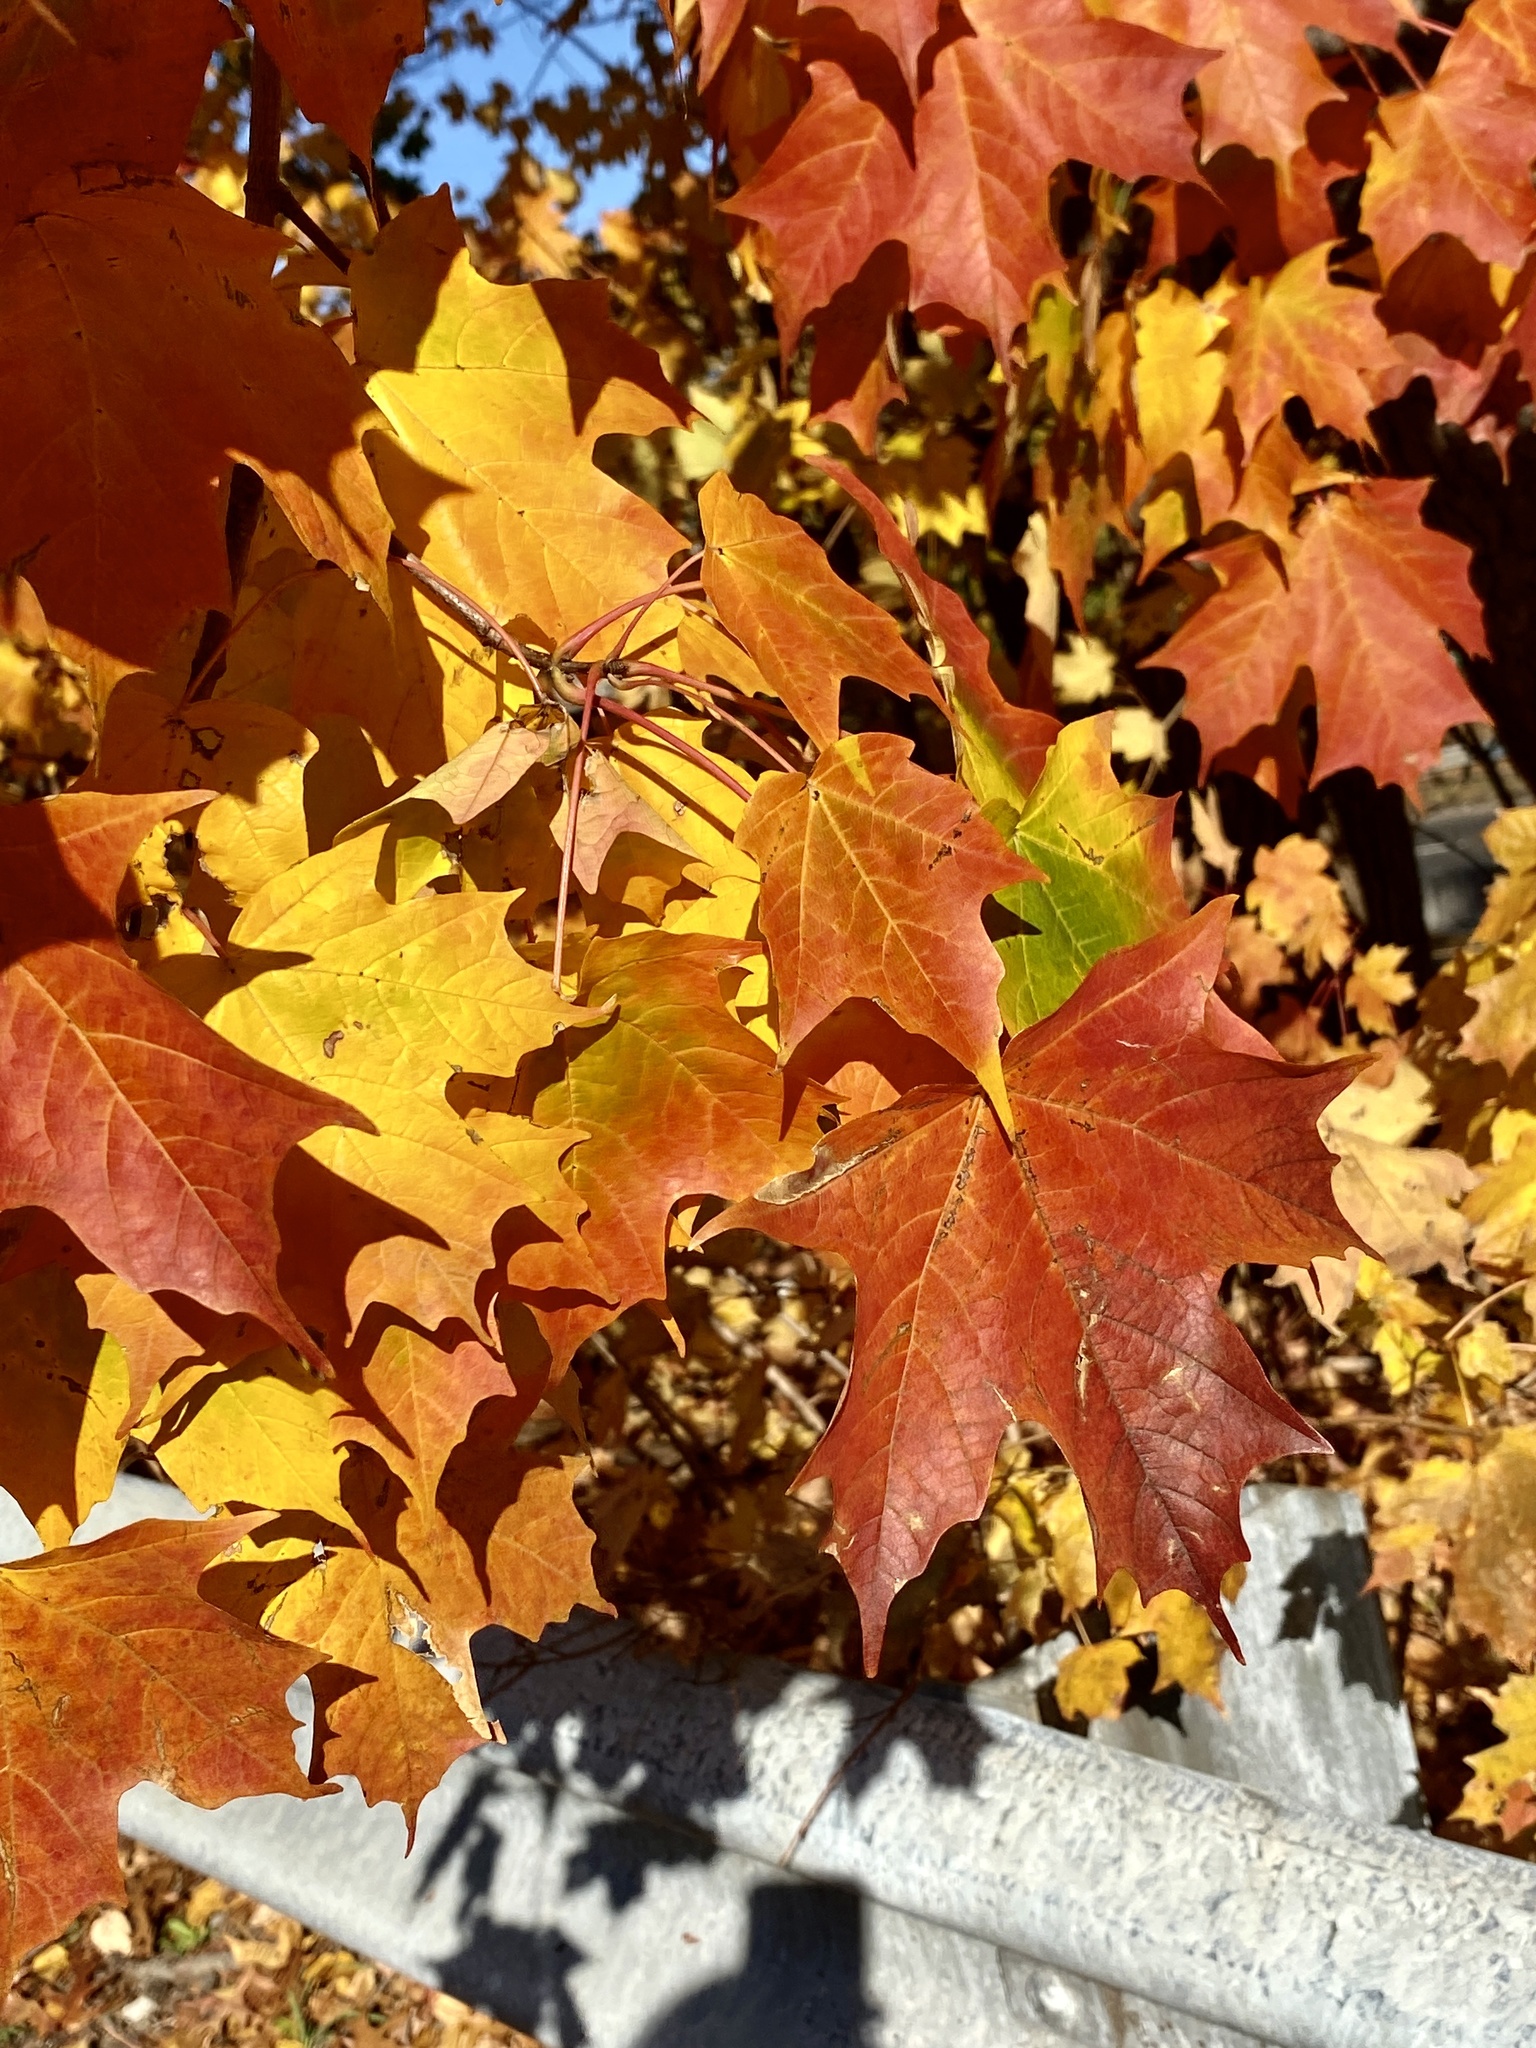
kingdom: Plantae
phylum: Tracheophyta
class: Magnoliopsida
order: Sapindales
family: Sapindaceae
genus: Acer
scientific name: Acer saccharum
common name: Sugar maple
